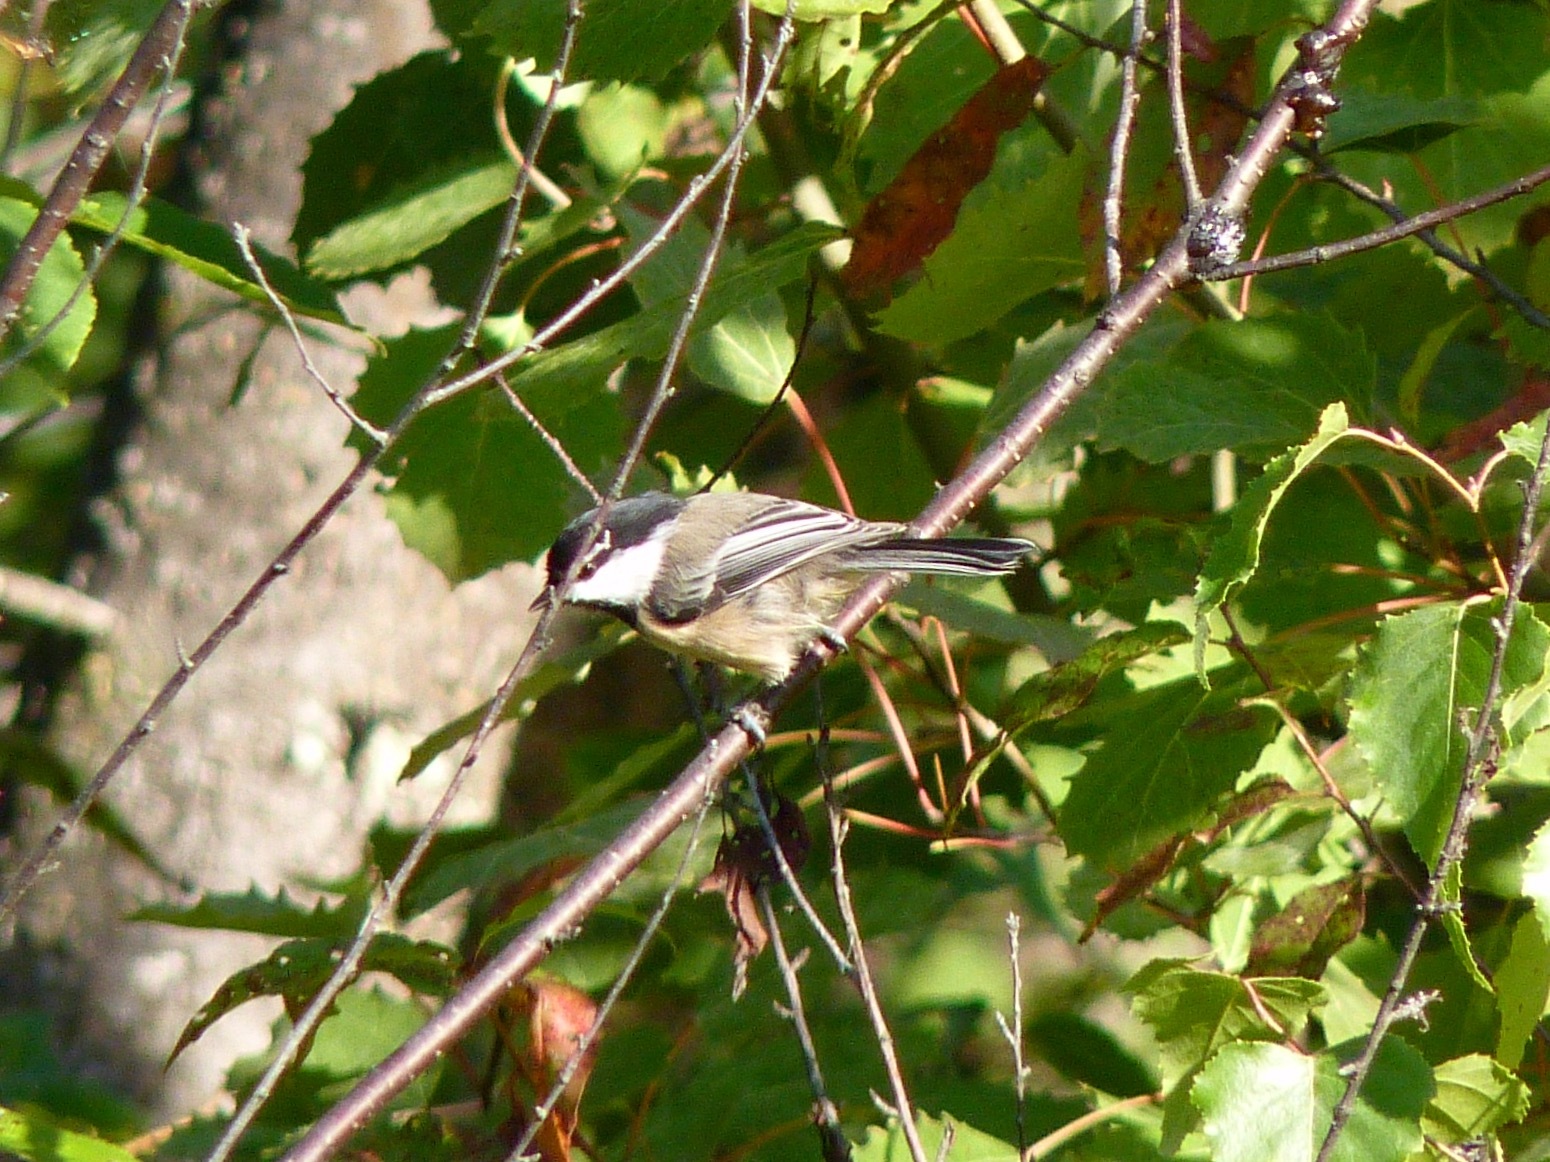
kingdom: Animalia
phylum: Chordata
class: Aves
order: Passeriformes
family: Paridae
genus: Poecile
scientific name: Poecile atricapillus
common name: Black-capped chickadee
